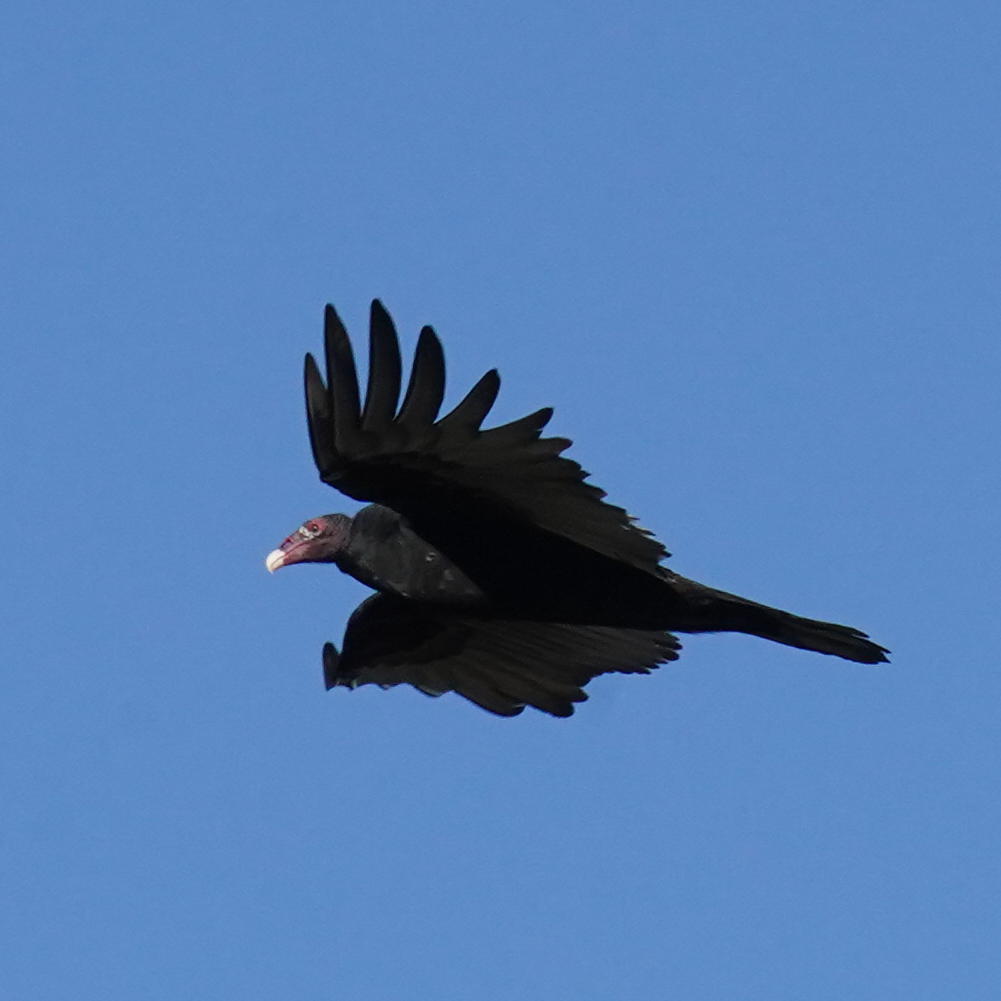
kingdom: Animalia
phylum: Chordata
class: Aves
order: Accipitriformes
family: Cathartidae
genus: Cathartes
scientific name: Cathartes aura
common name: Turkey vulture
